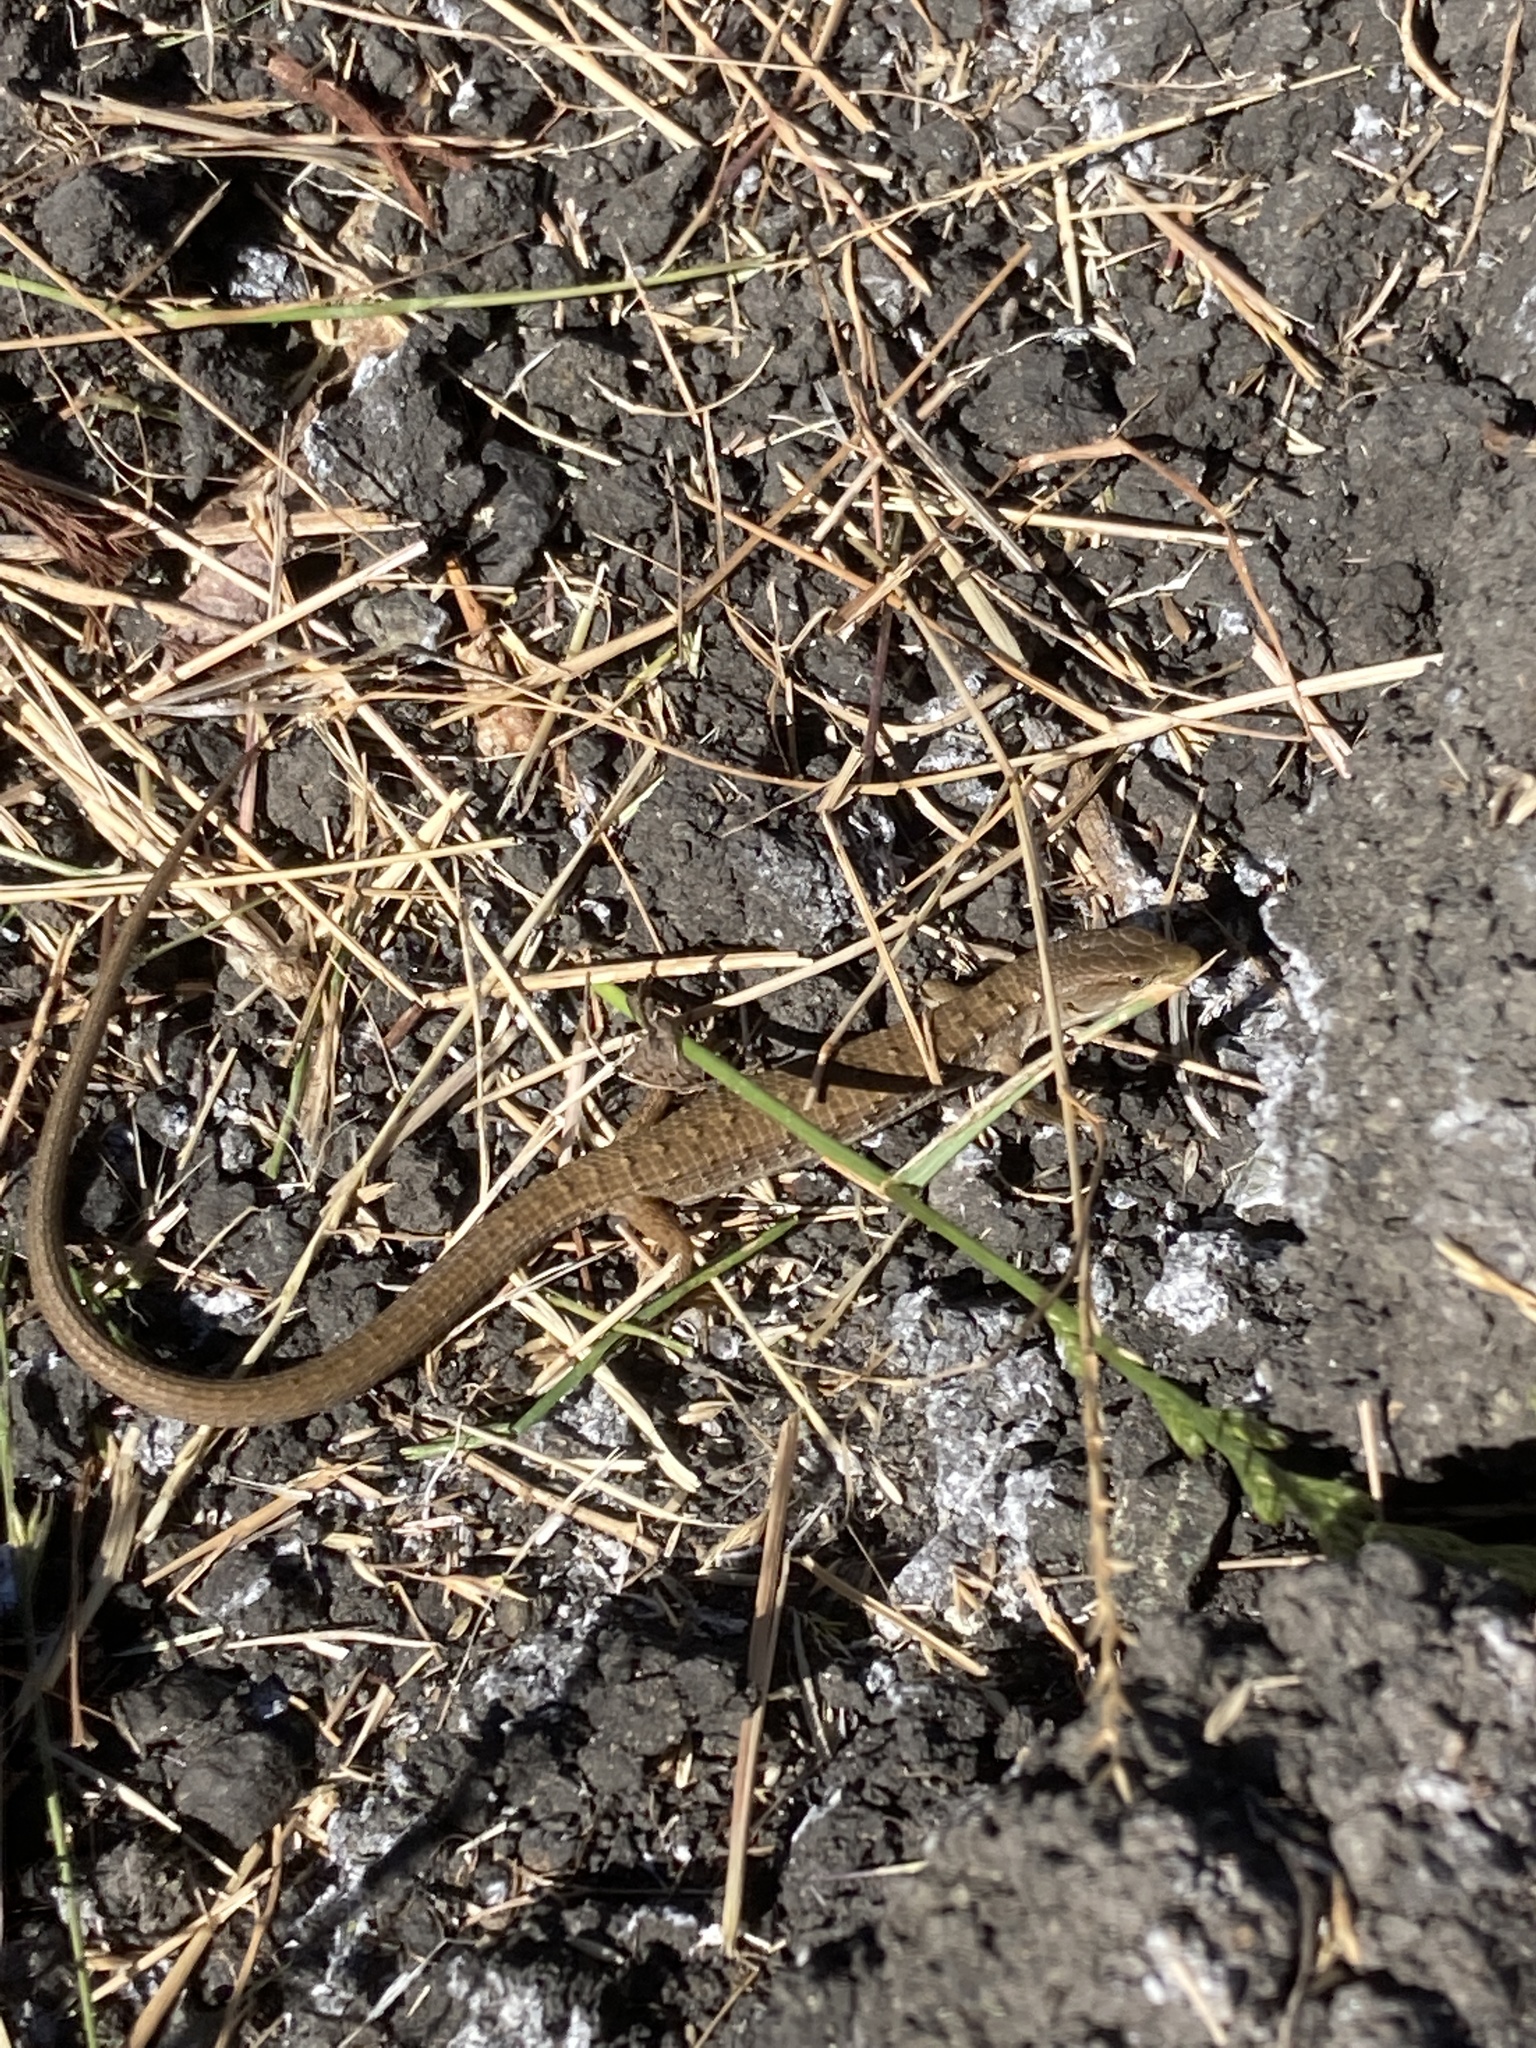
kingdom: Animalia
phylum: Chordata
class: Squamata
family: Anguidae
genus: Elgaria
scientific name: Elgaria multicarinata
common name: Southern alligator lizard
